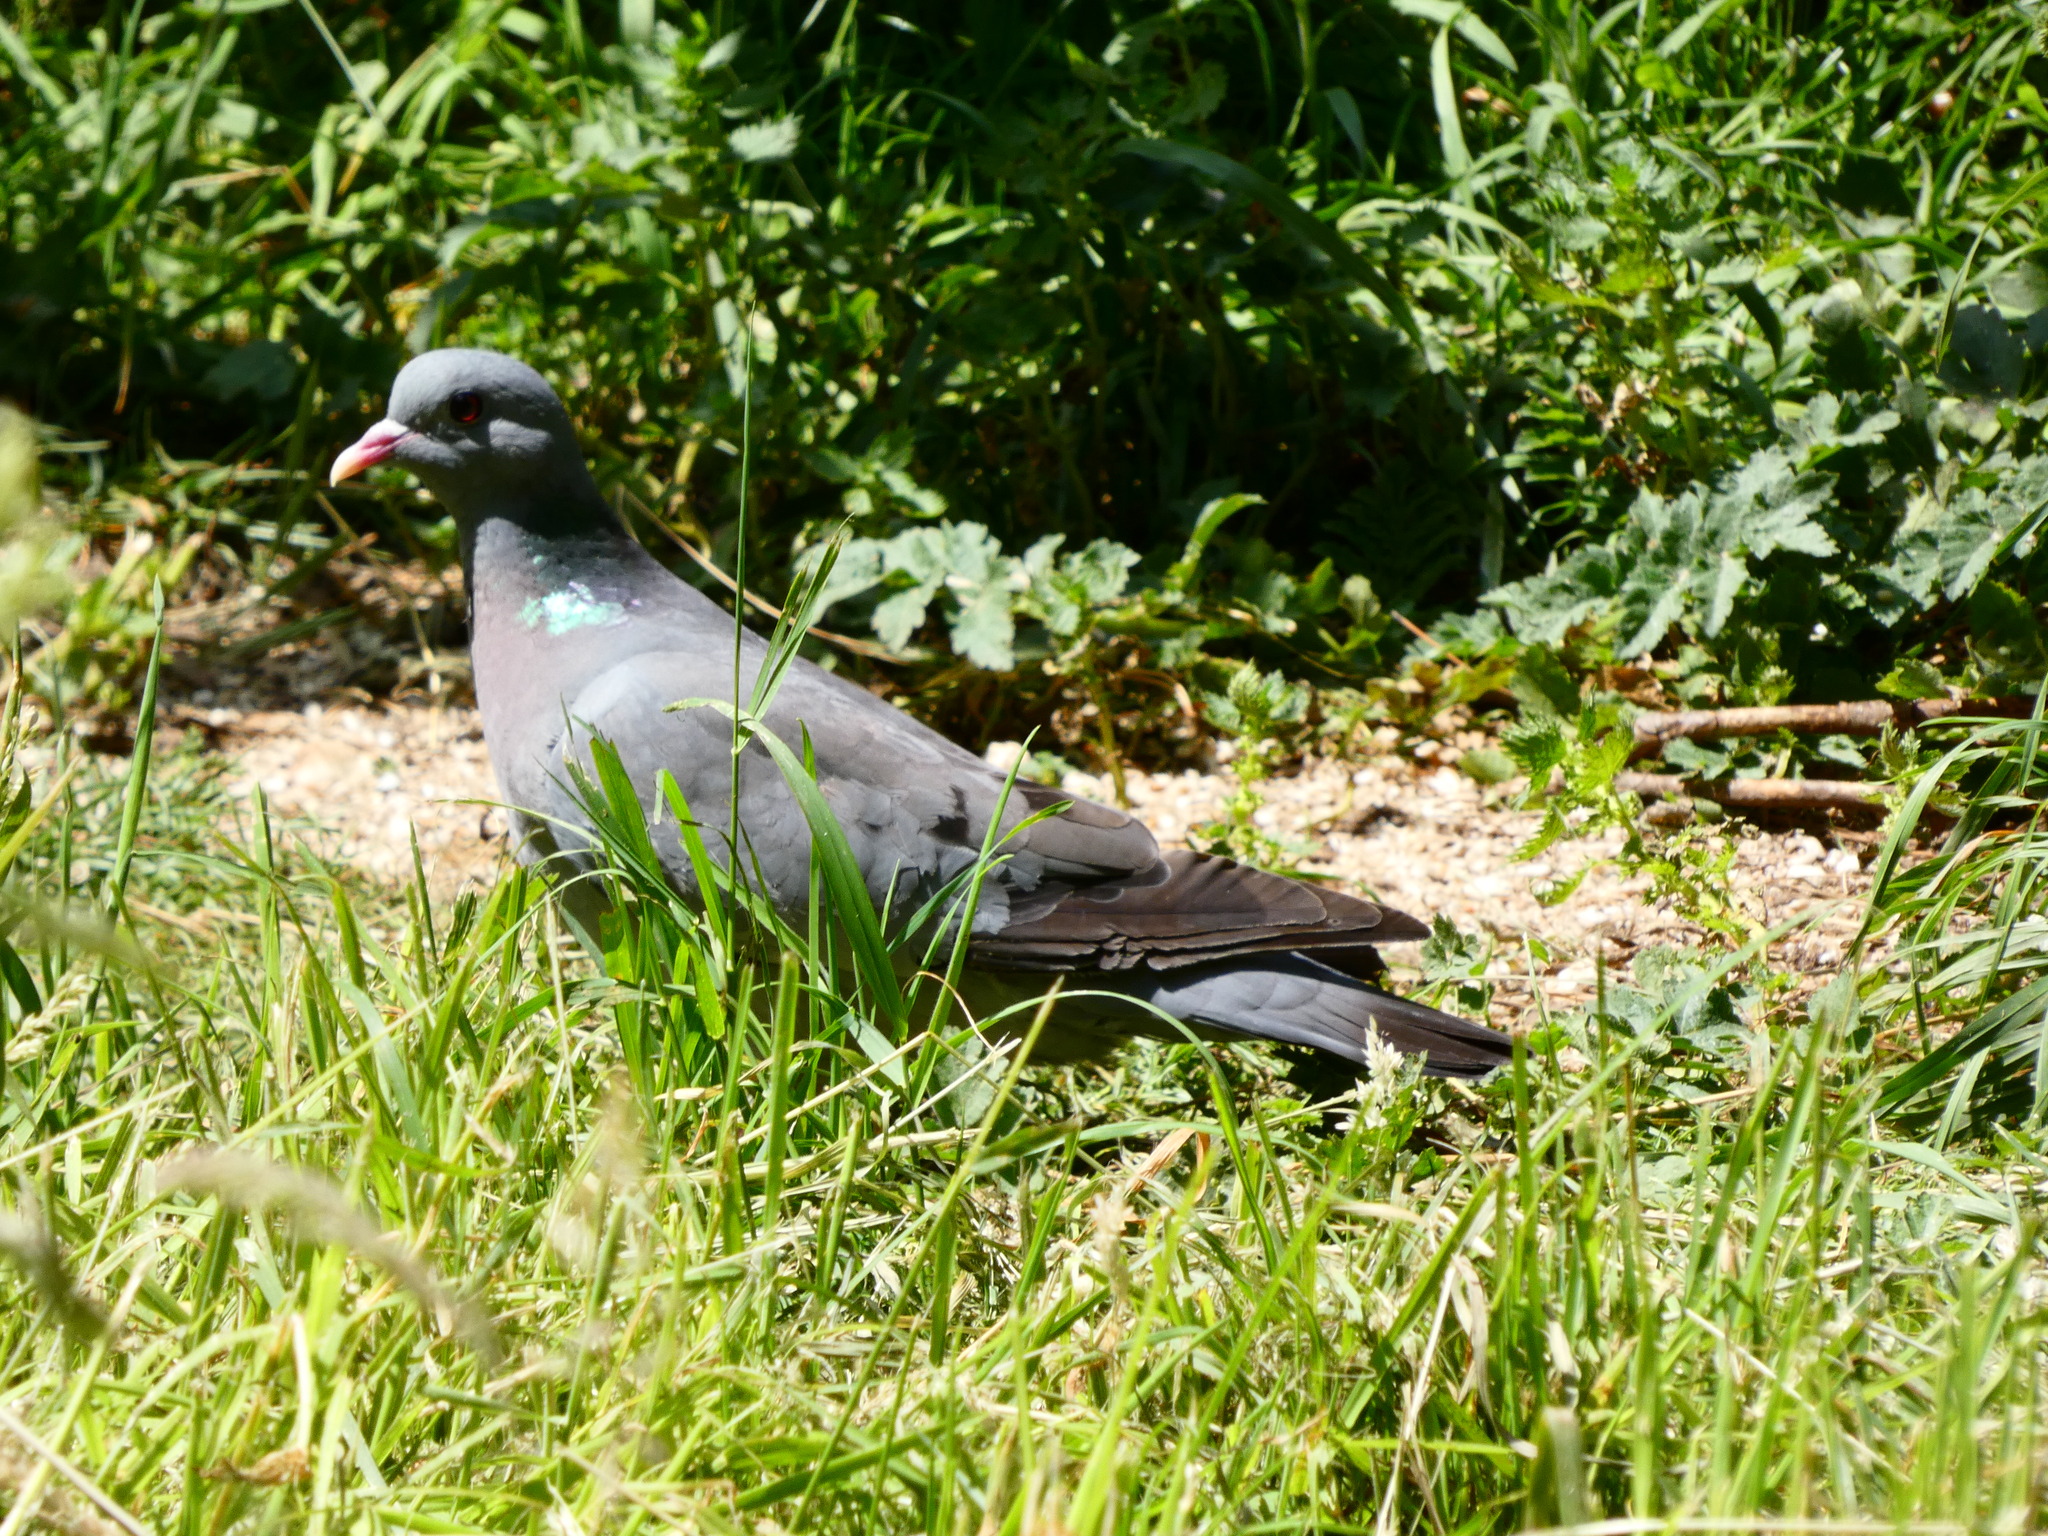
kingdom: Animalia
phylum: Chordata
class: Aves
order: Columbiformes
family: Columbidae
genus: Columba
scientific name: Columba oenas
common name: Stock dove
